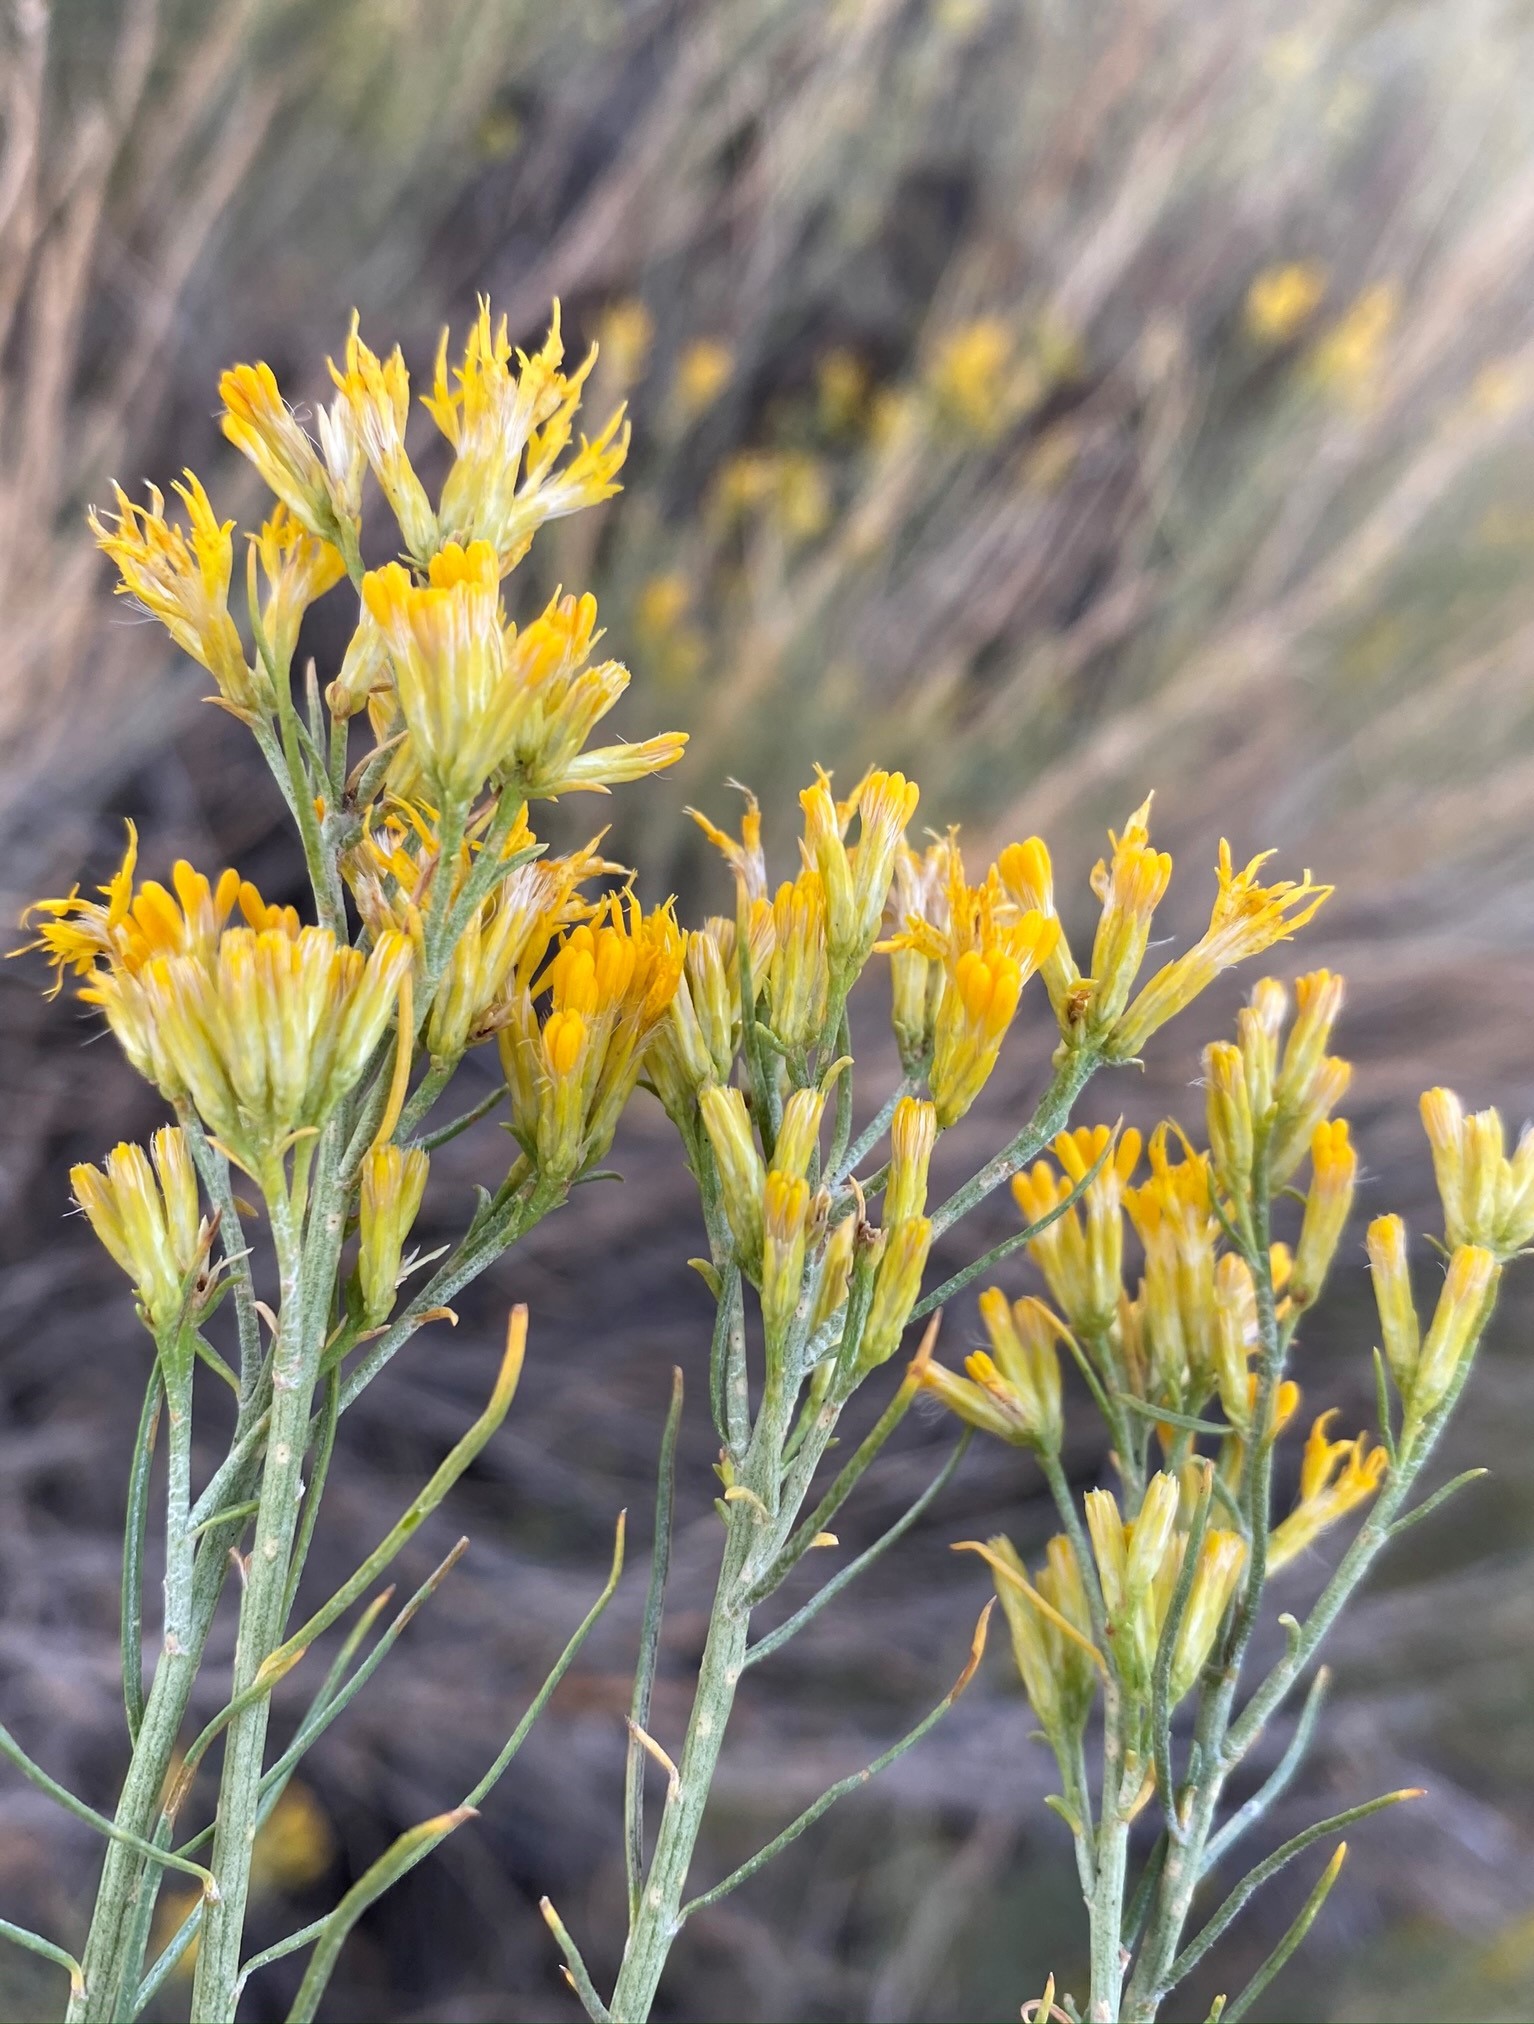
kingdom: Plantae
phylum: Tracheophyta
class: Magnoliopsida
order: Asterales
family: Asteraceae
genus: Ericameria
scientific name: Ericameria nauseosa
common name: Rubber rabbitbrush
